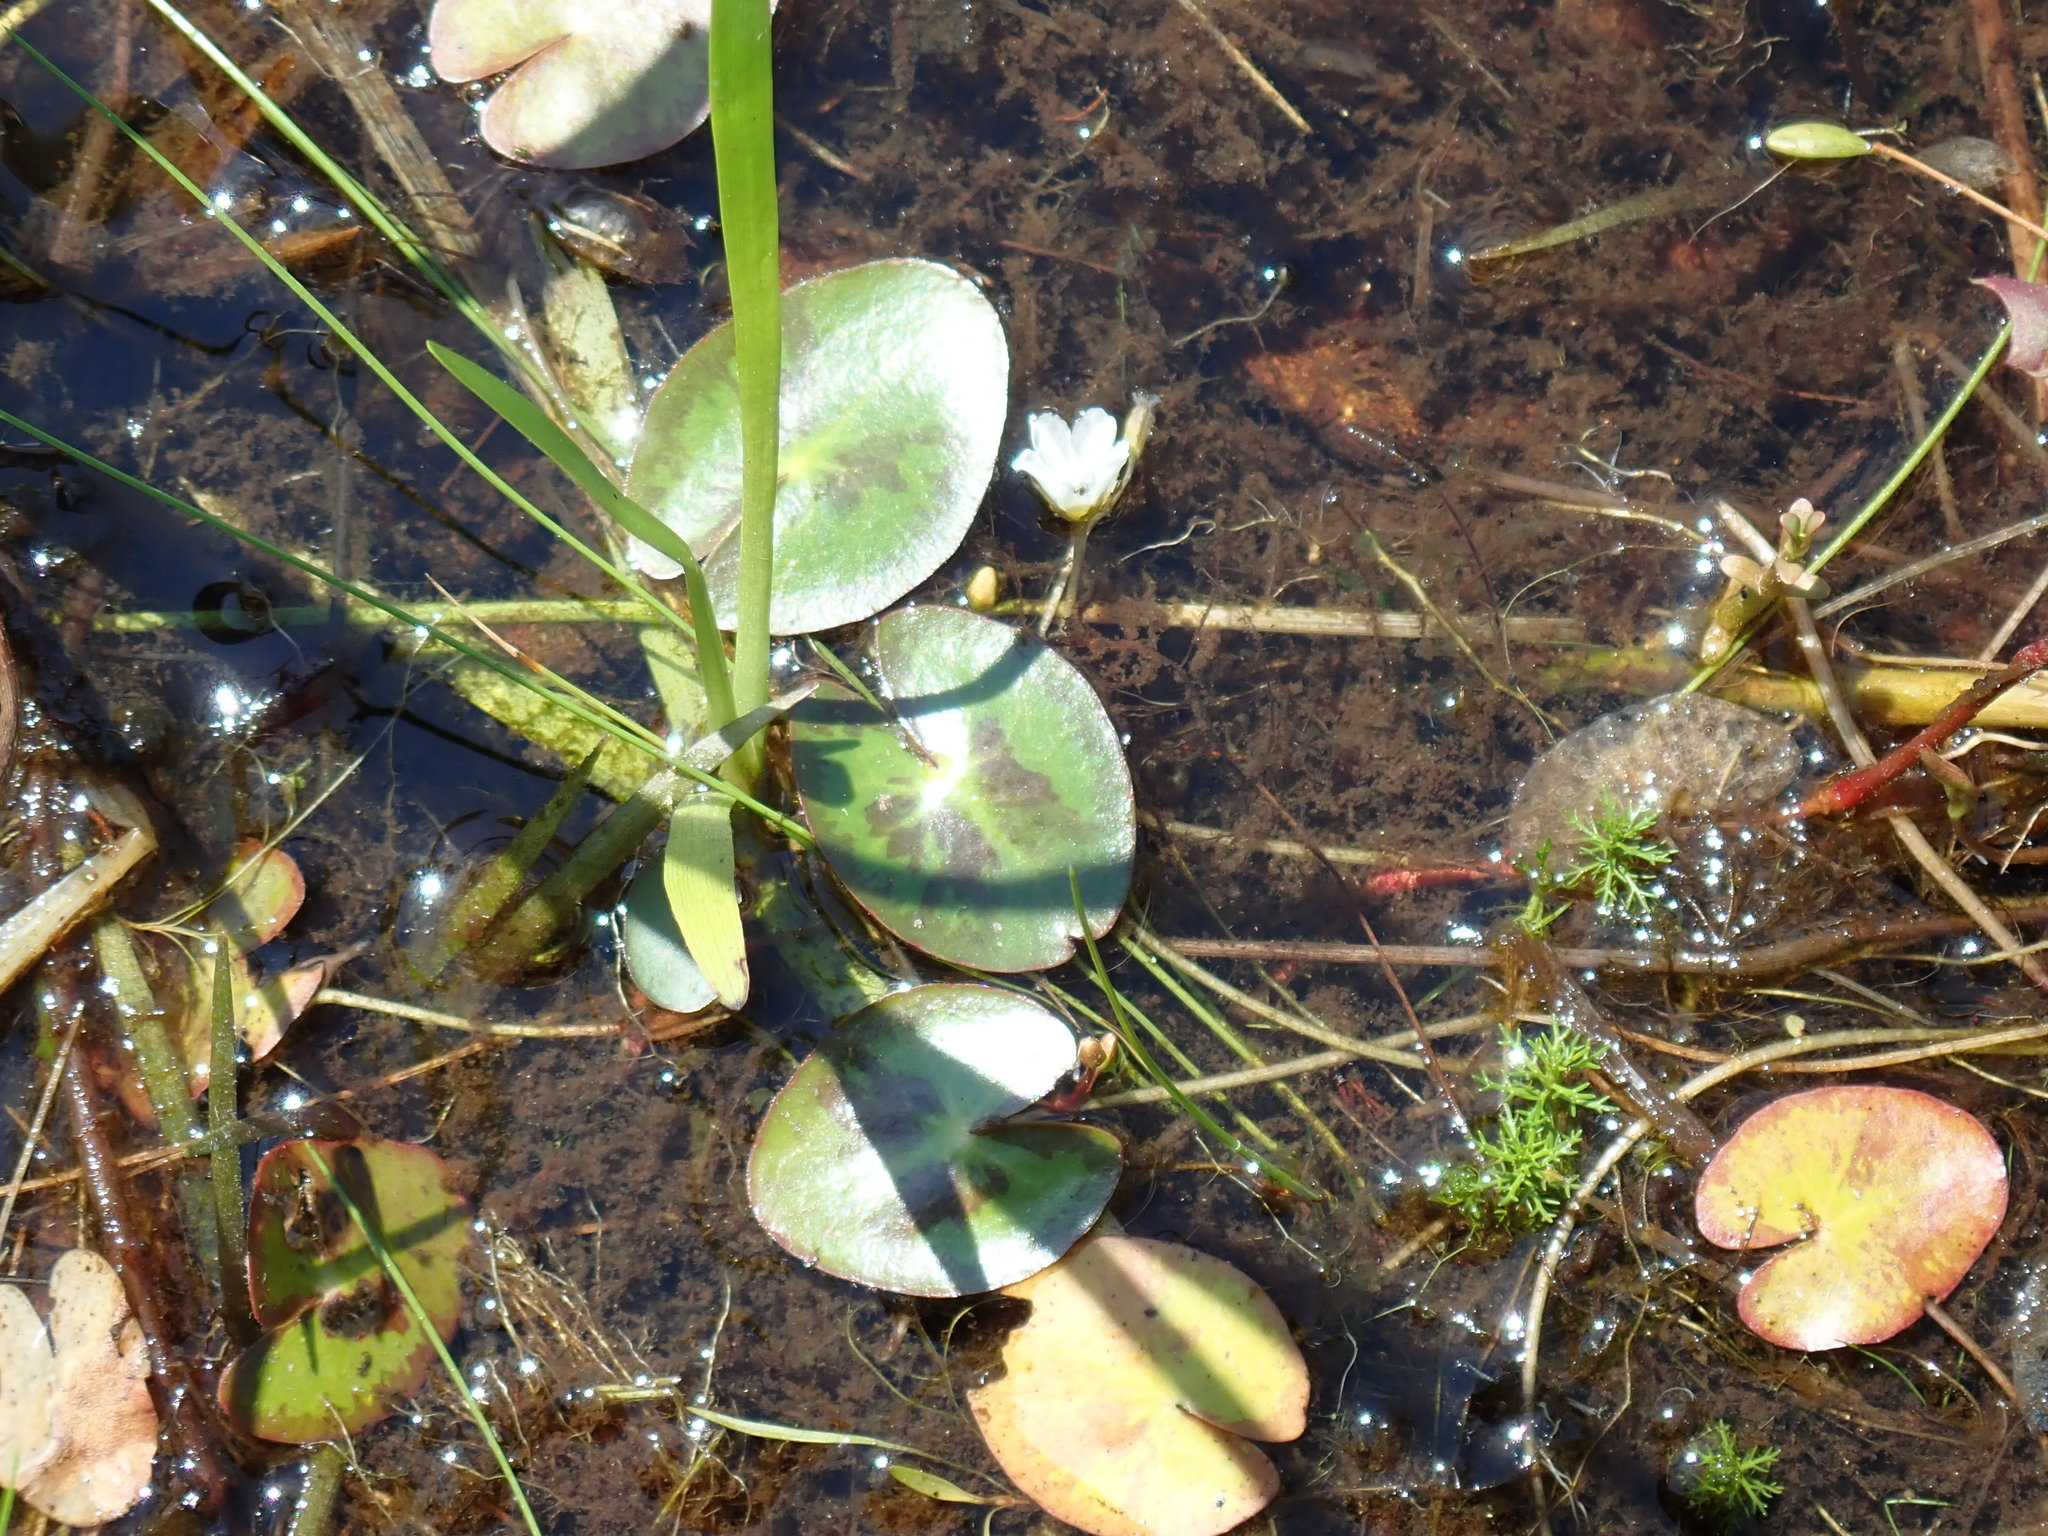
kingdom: Plantae
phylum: Tracheophyta
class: Magnoliopsida
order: Asterales
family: Menyanthaceae
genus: Nymphoides
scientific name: Nymphoides cordata
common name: Eight-angled floatingheart
